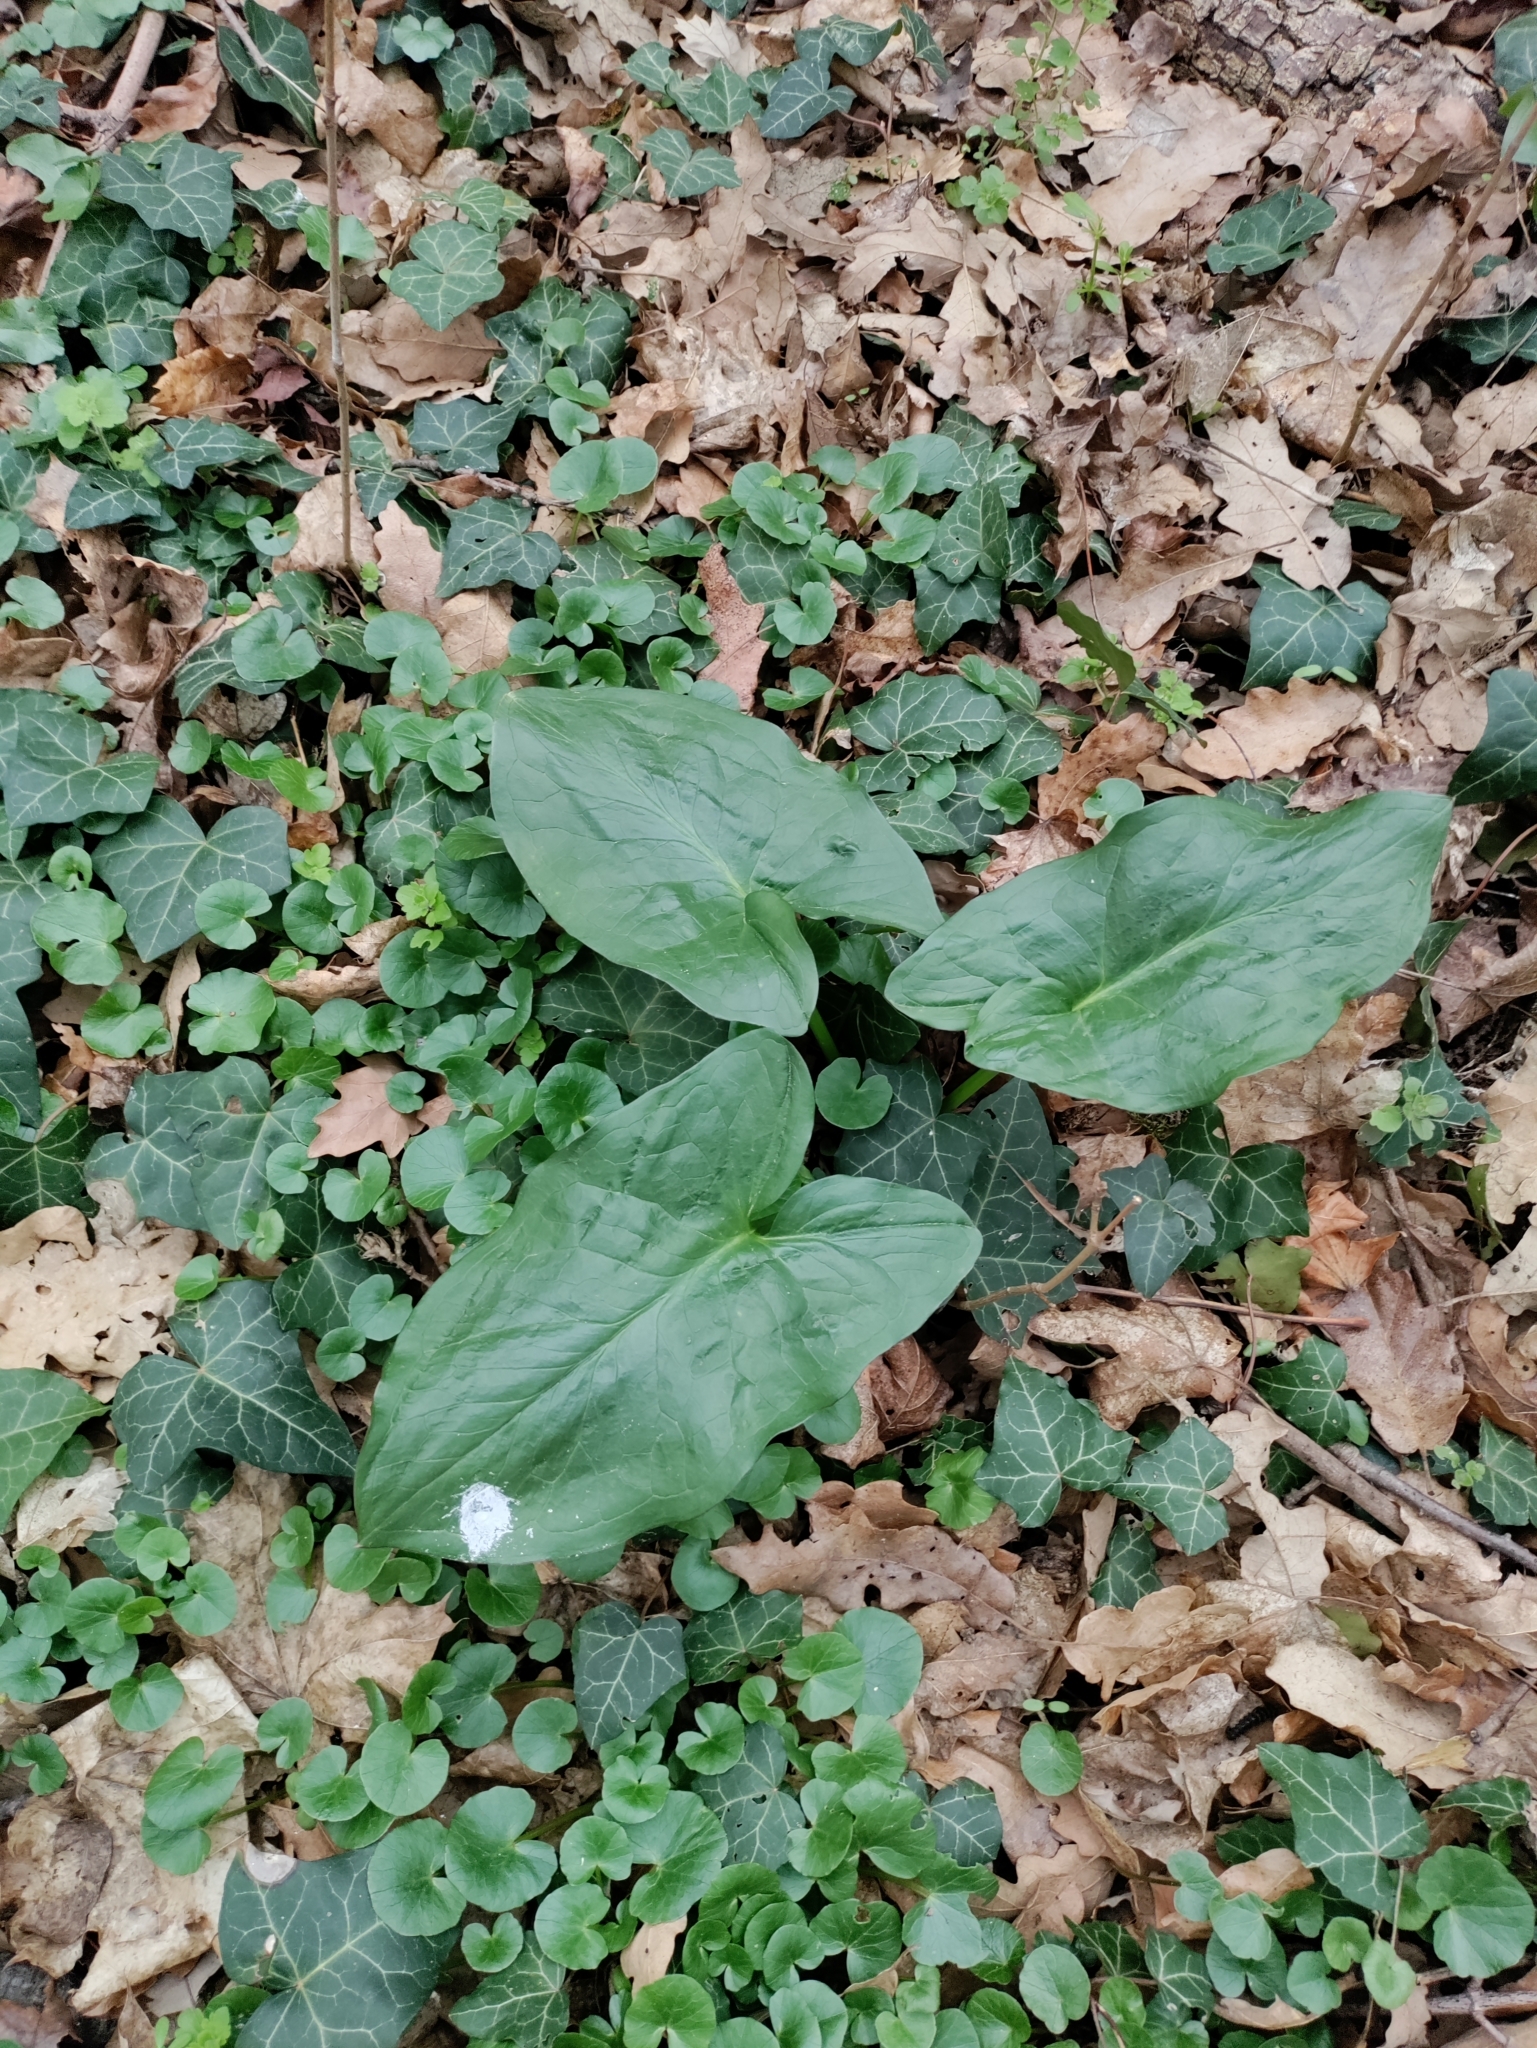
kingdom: Plantae
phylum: Tracheophyta
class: Liliopsida
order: Alismatales
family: Araceae
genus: Arum
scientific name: Arum cylindraceum
